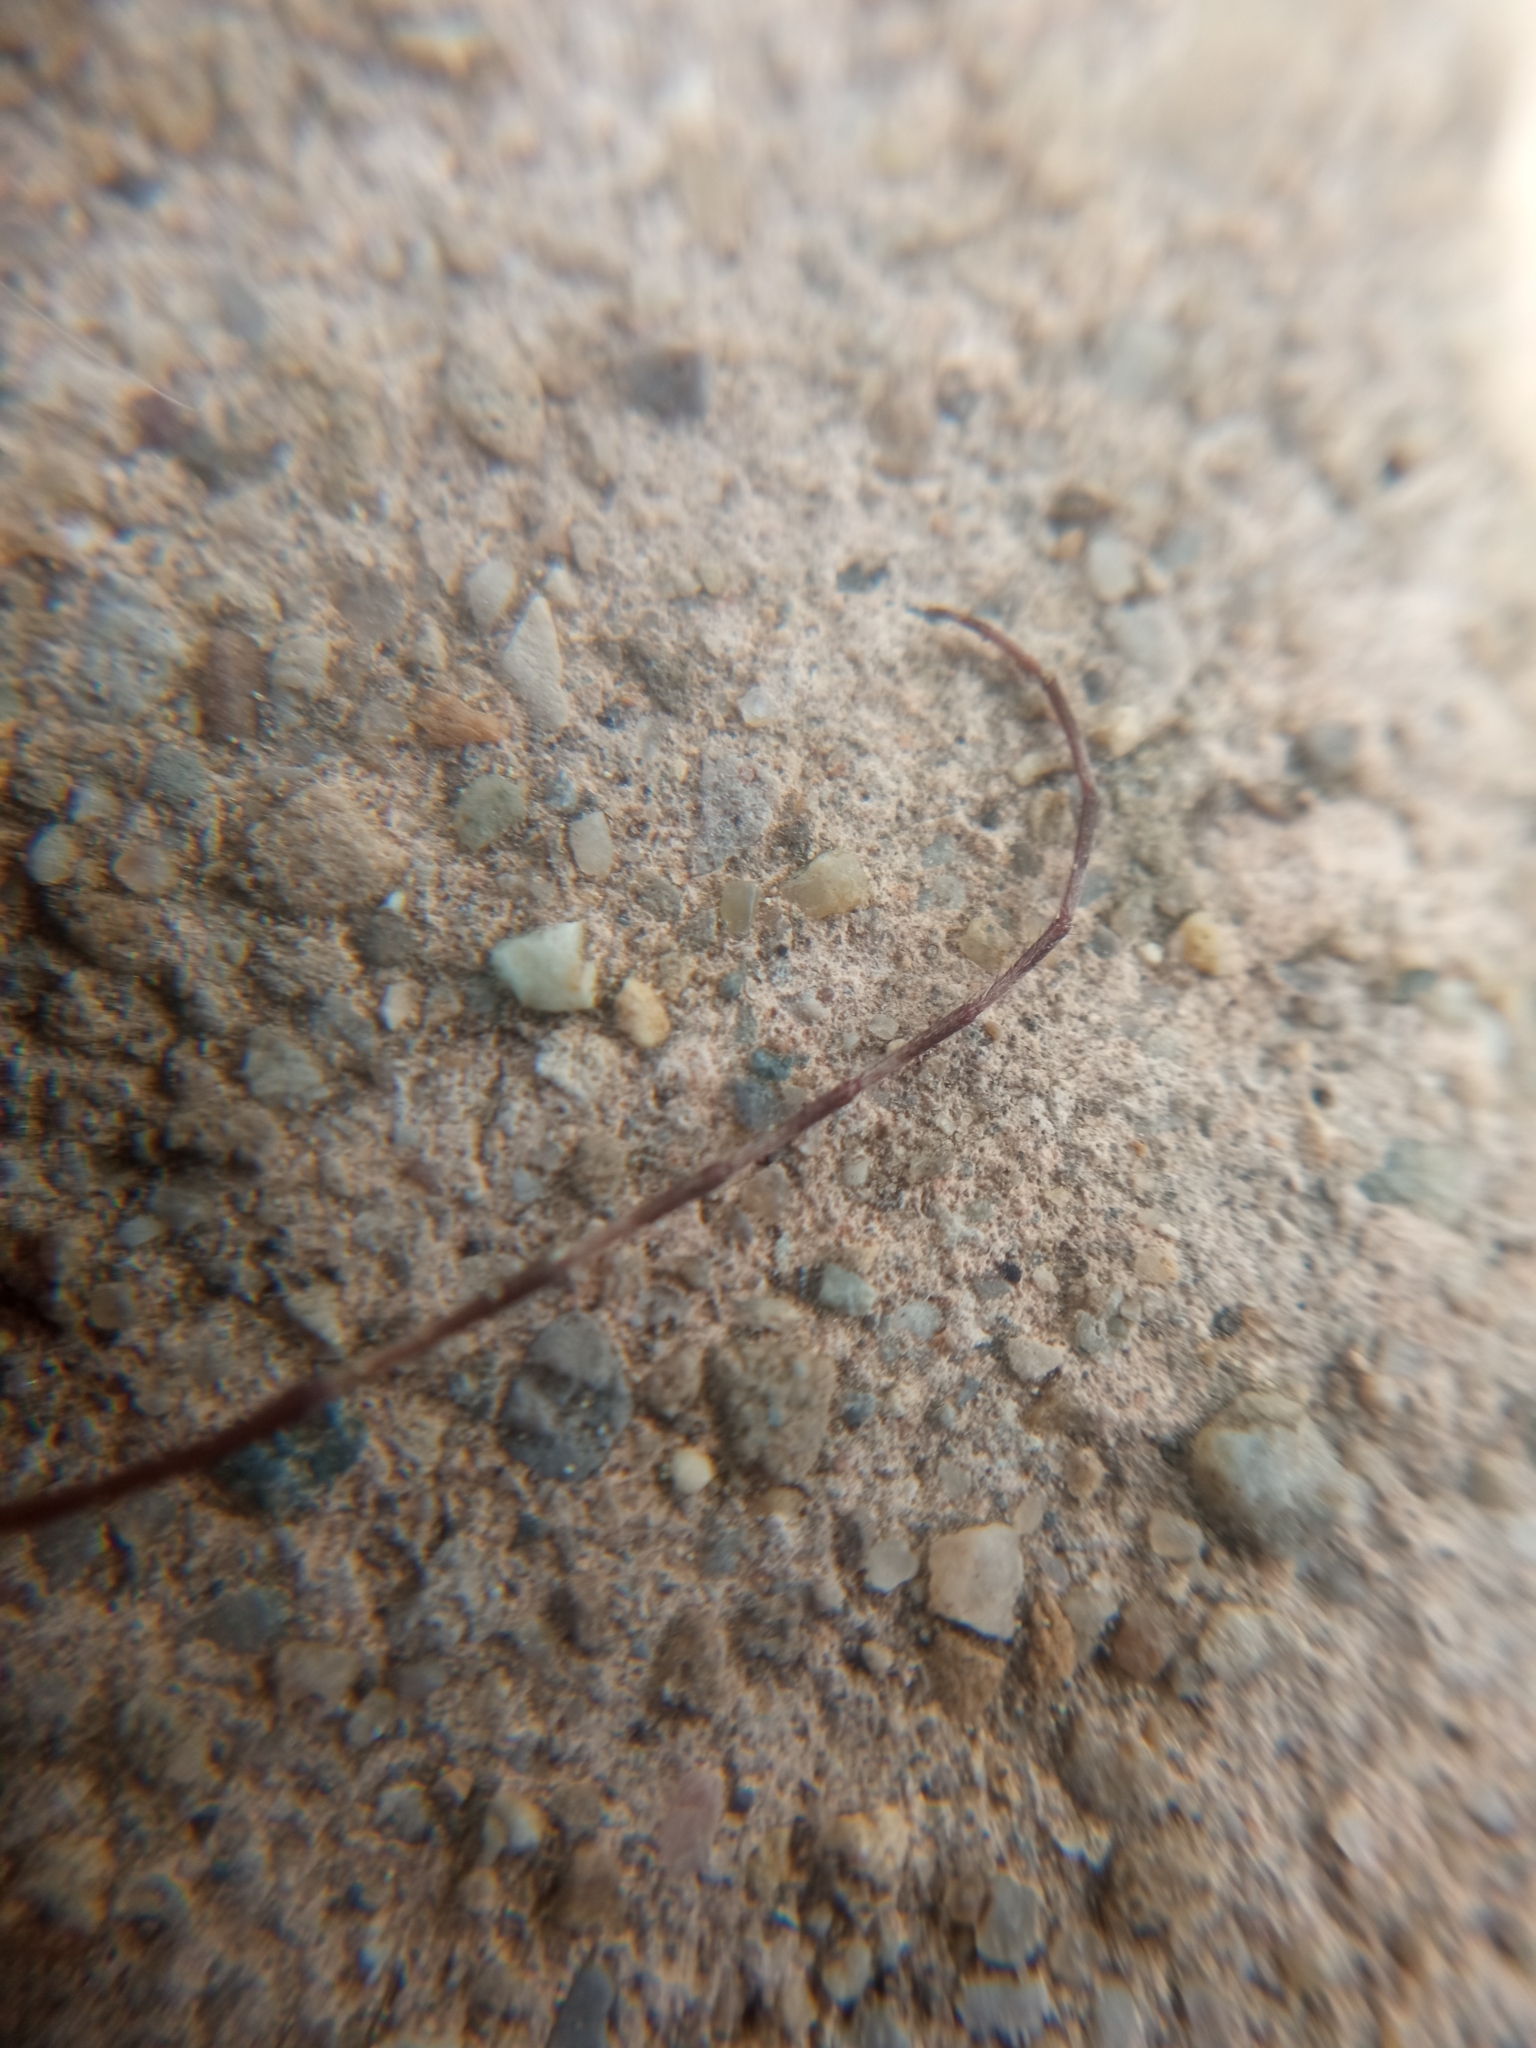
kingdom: Animalia
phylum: Arthropoda
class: Insecta
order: Coleoptera
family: Cerambycidae
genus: Mesosa
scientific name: Mesosa nebulosa
